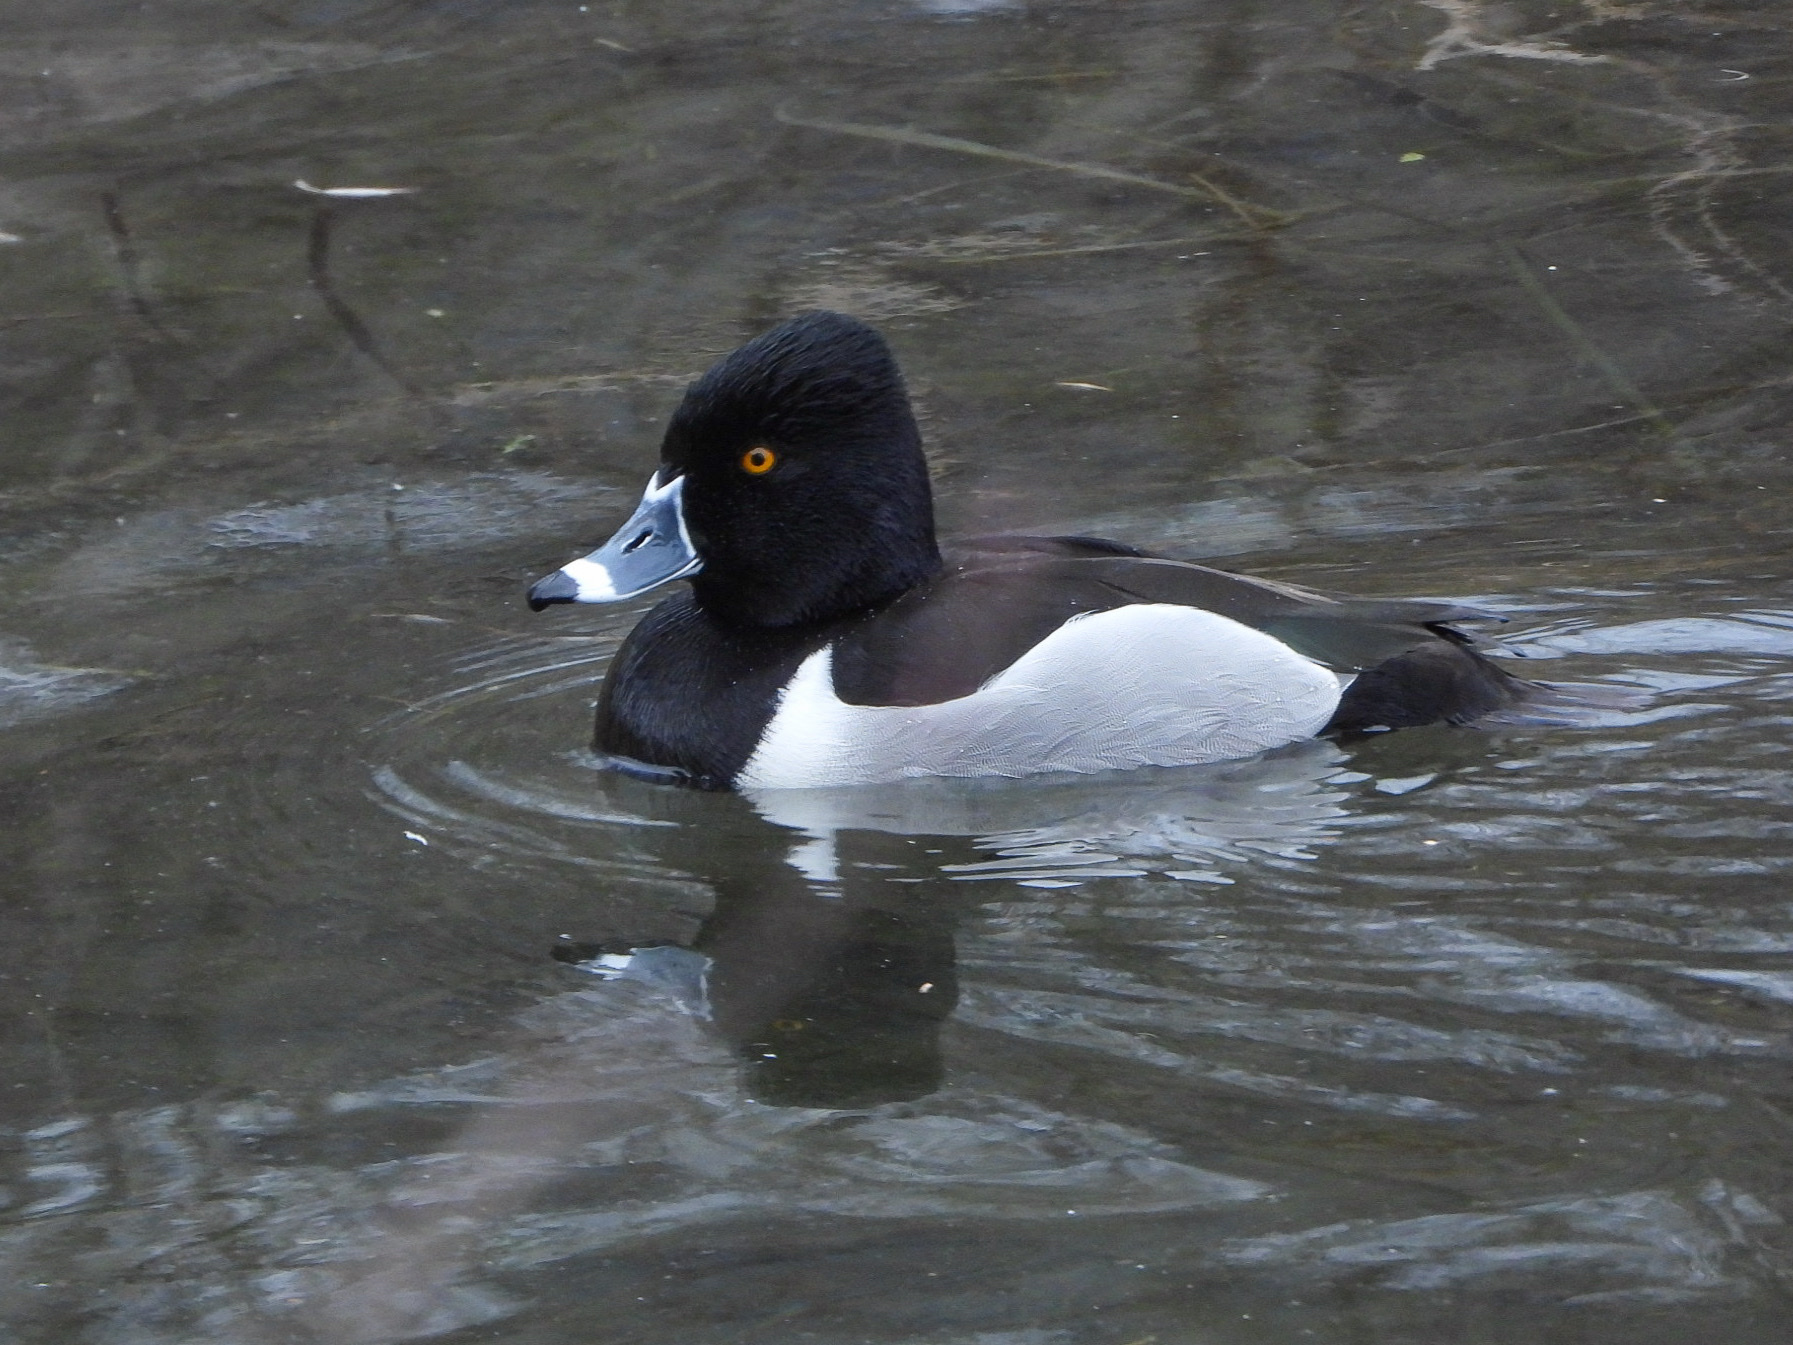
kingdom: Animalia
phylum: Chordata
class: Aves
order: Anseriformes
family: Anatidae
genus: Aythya
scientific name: Aythya collaris
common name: Ring-necked duck
